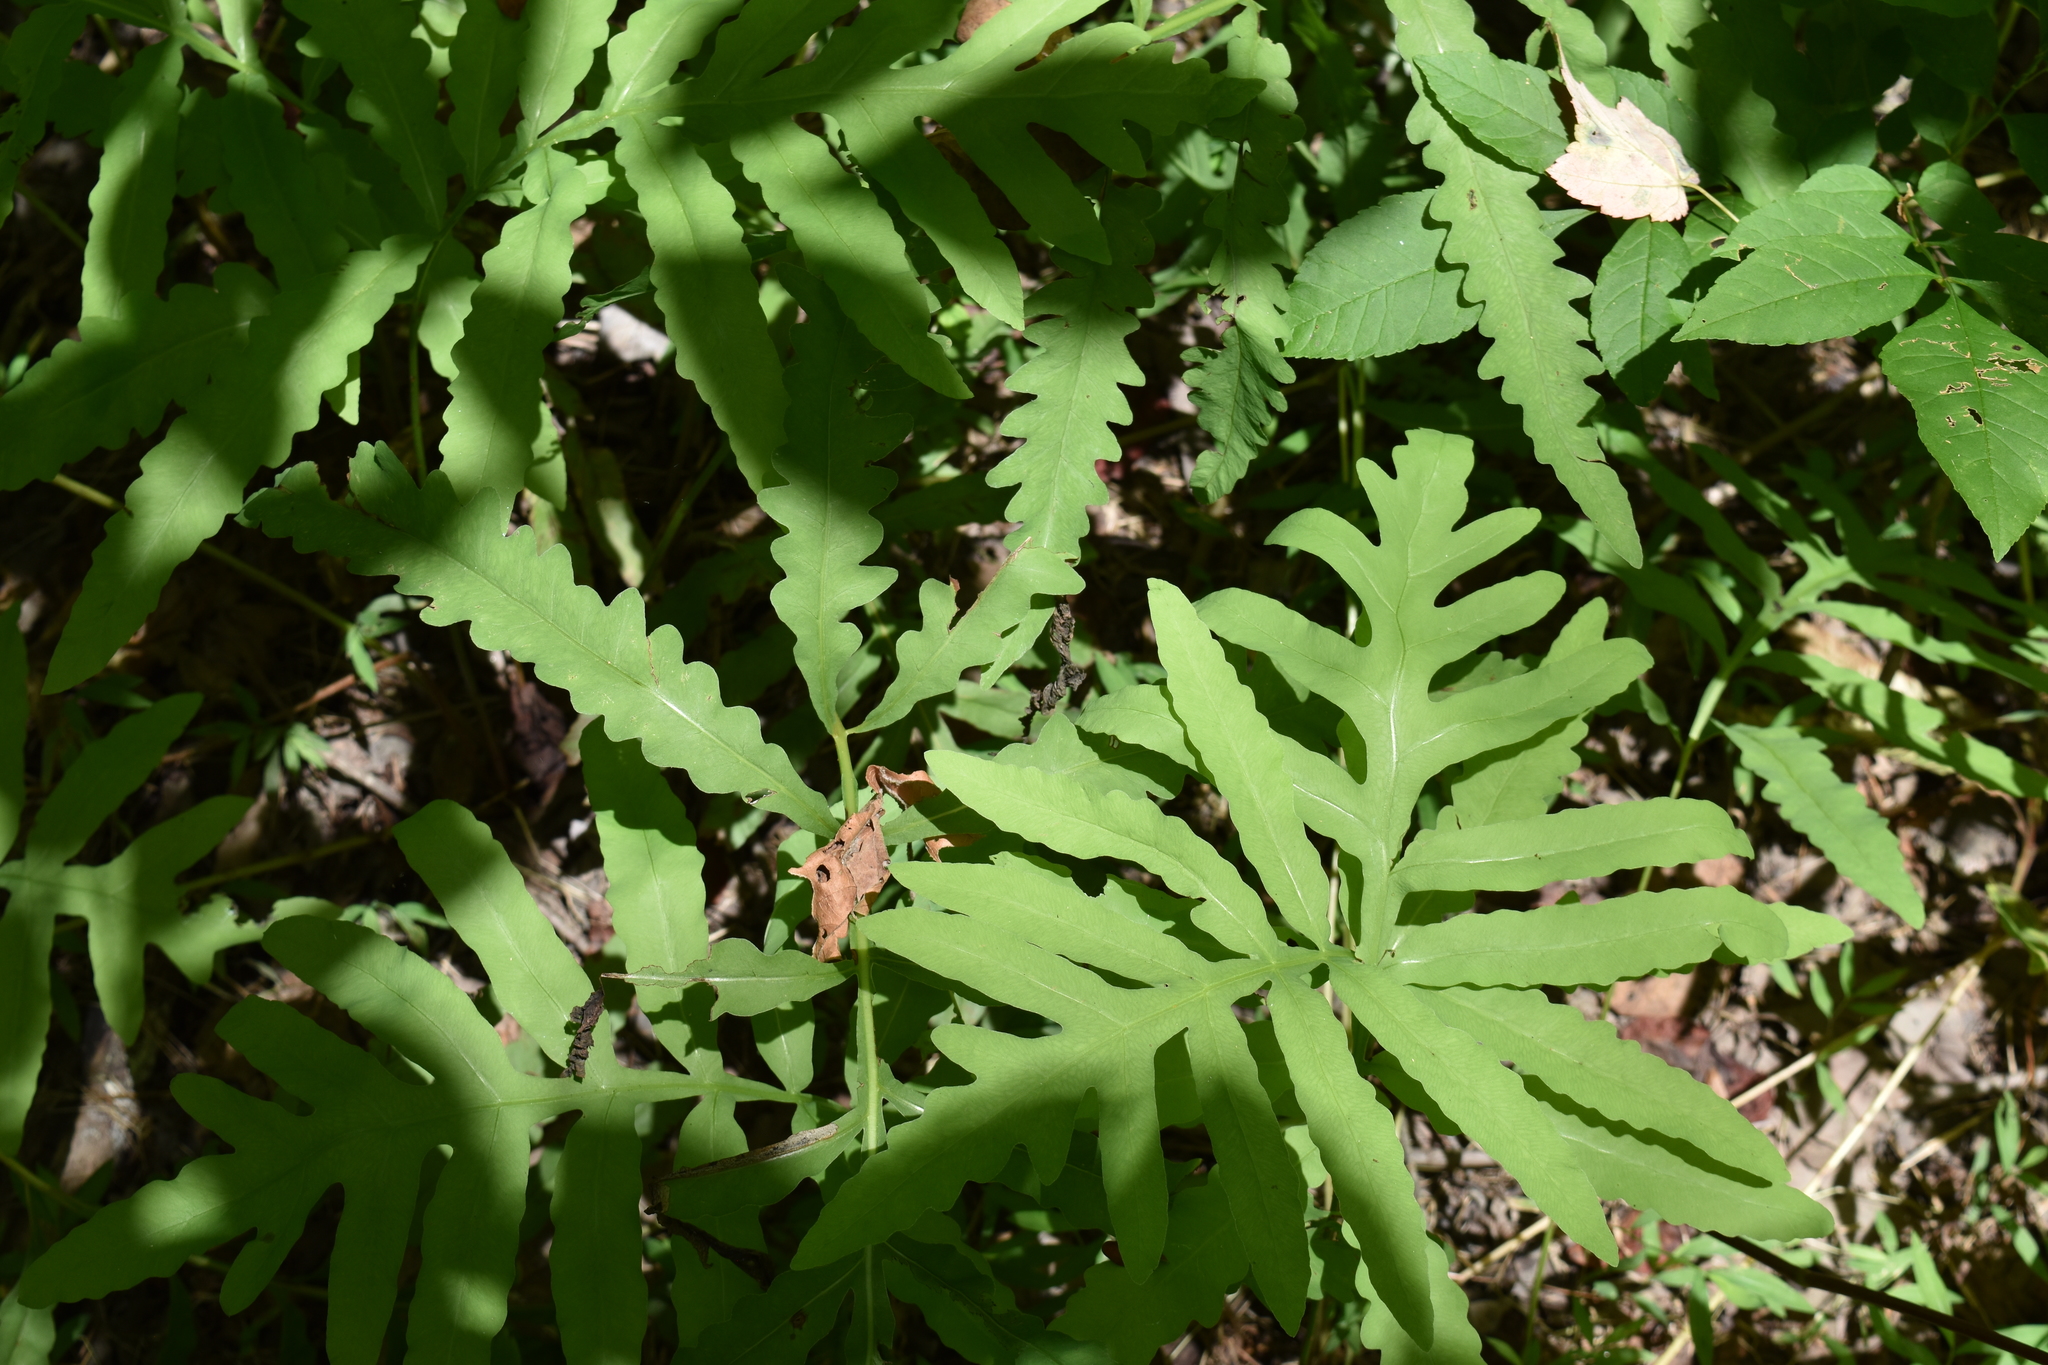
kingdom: Plantae
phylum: Tracheophyta
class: Polypodiopsida
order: Polypodiales
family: Onocleaceae
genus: Onoclea
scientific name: Onoclea sensibilis
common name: Sensitive fern
